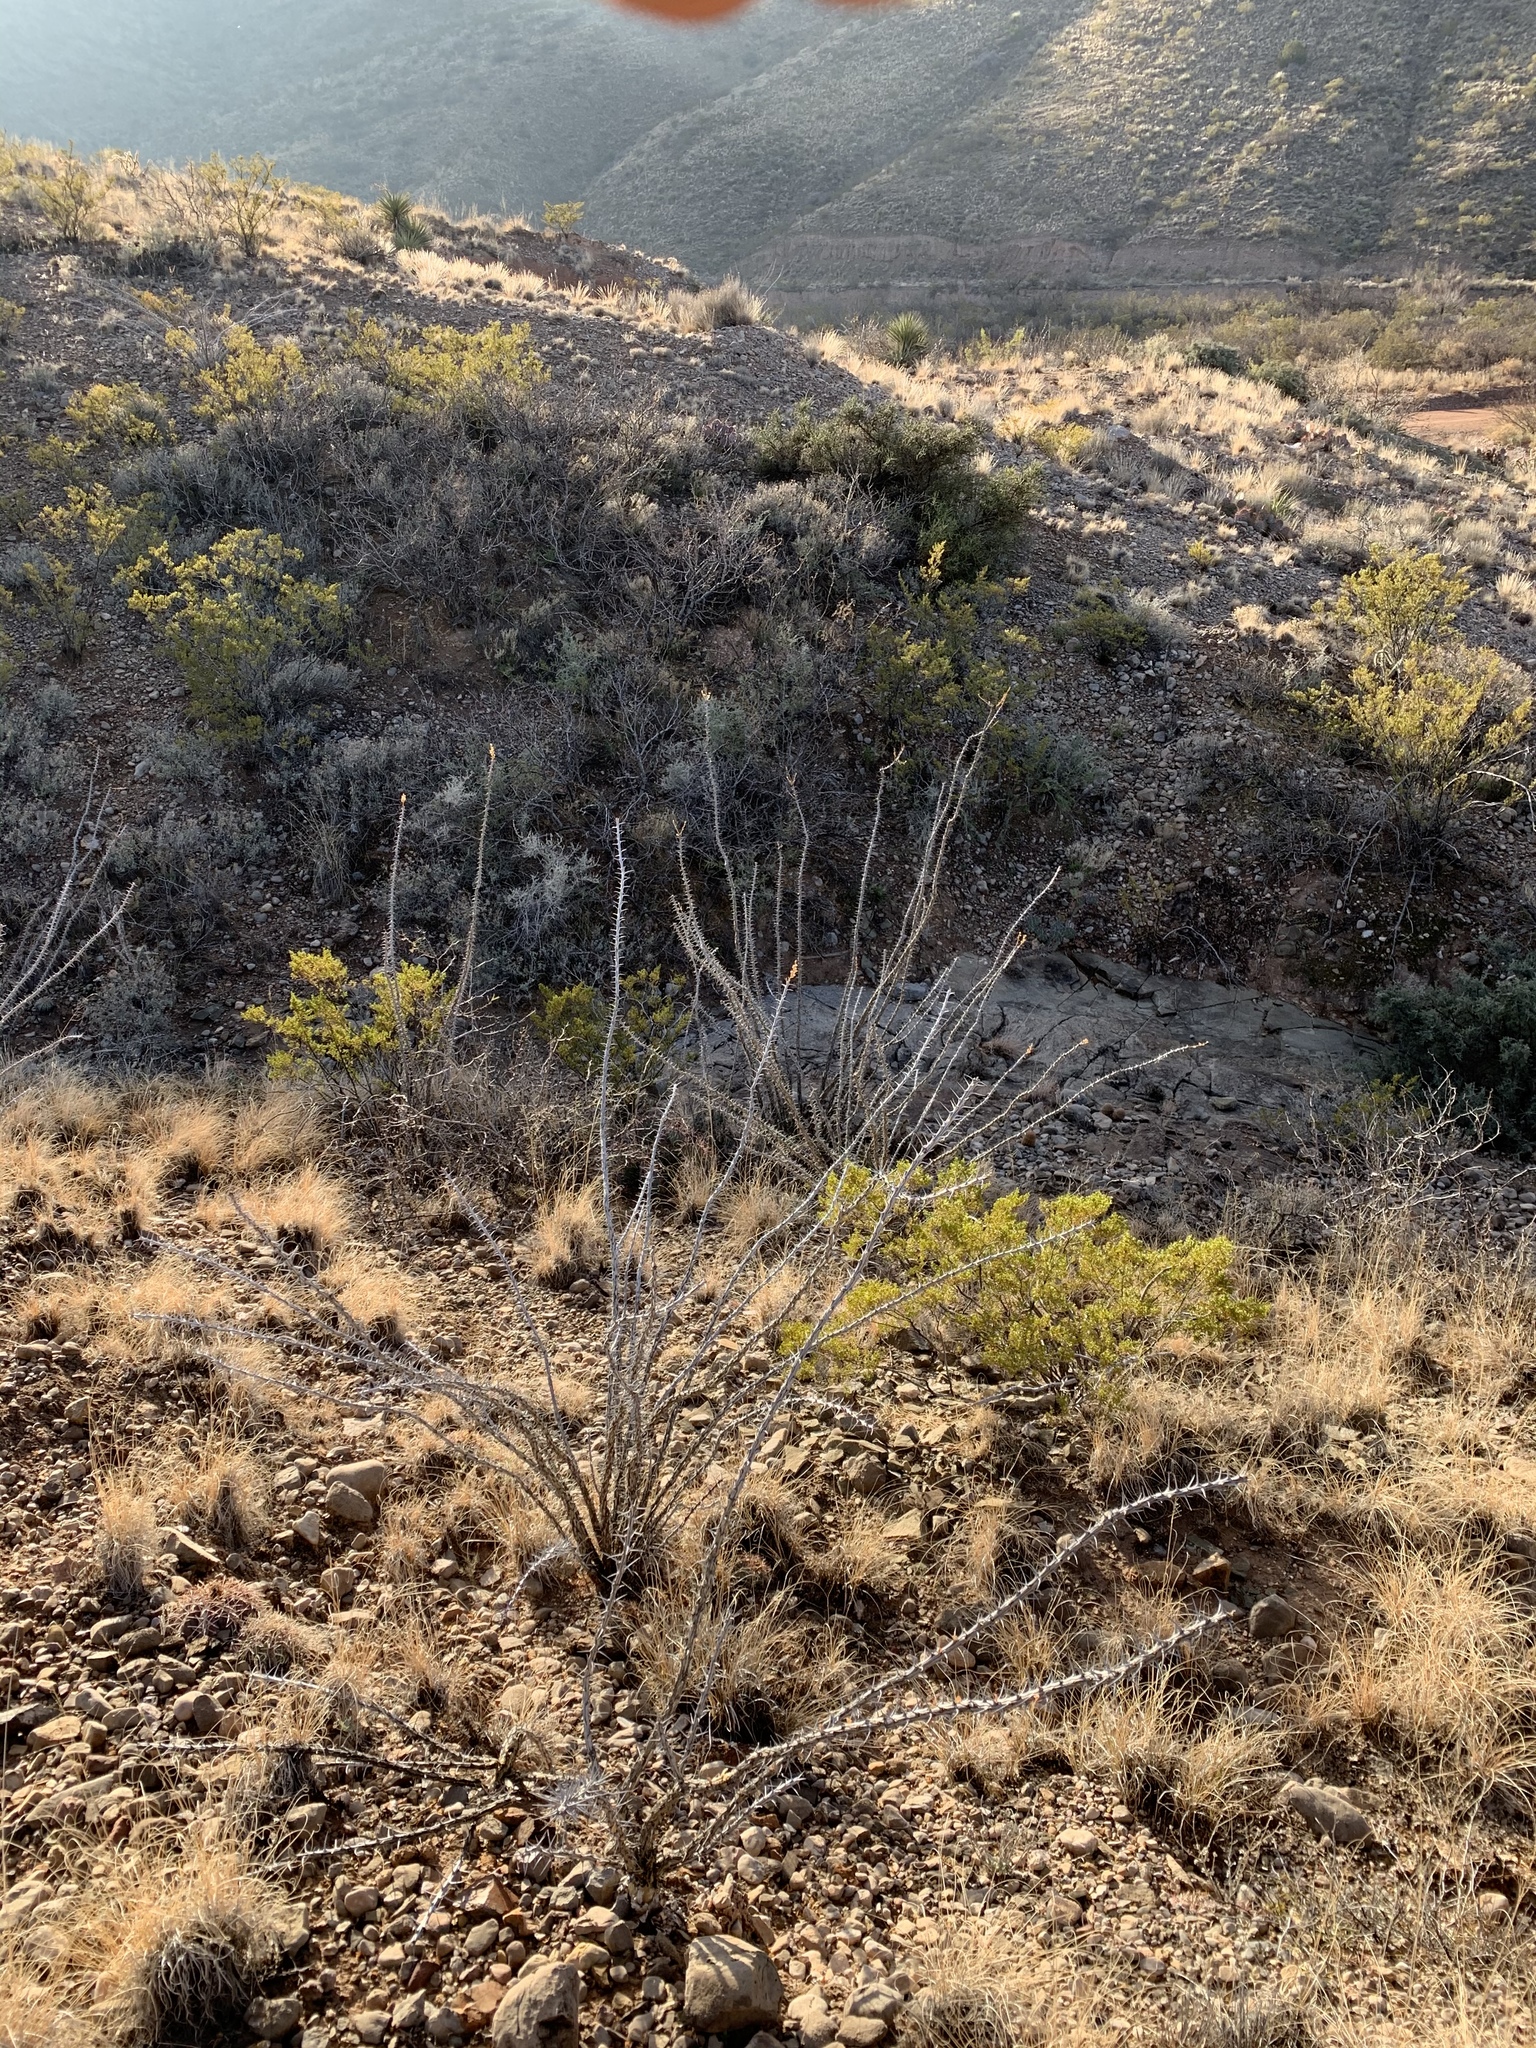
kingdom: Plantae
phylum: Tracheophyta
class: Magnoliopsida
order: Ericales
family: Fouquieriaceae
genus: Fouquieria
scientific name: Fouquieria splendens
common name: Vine-cactus
